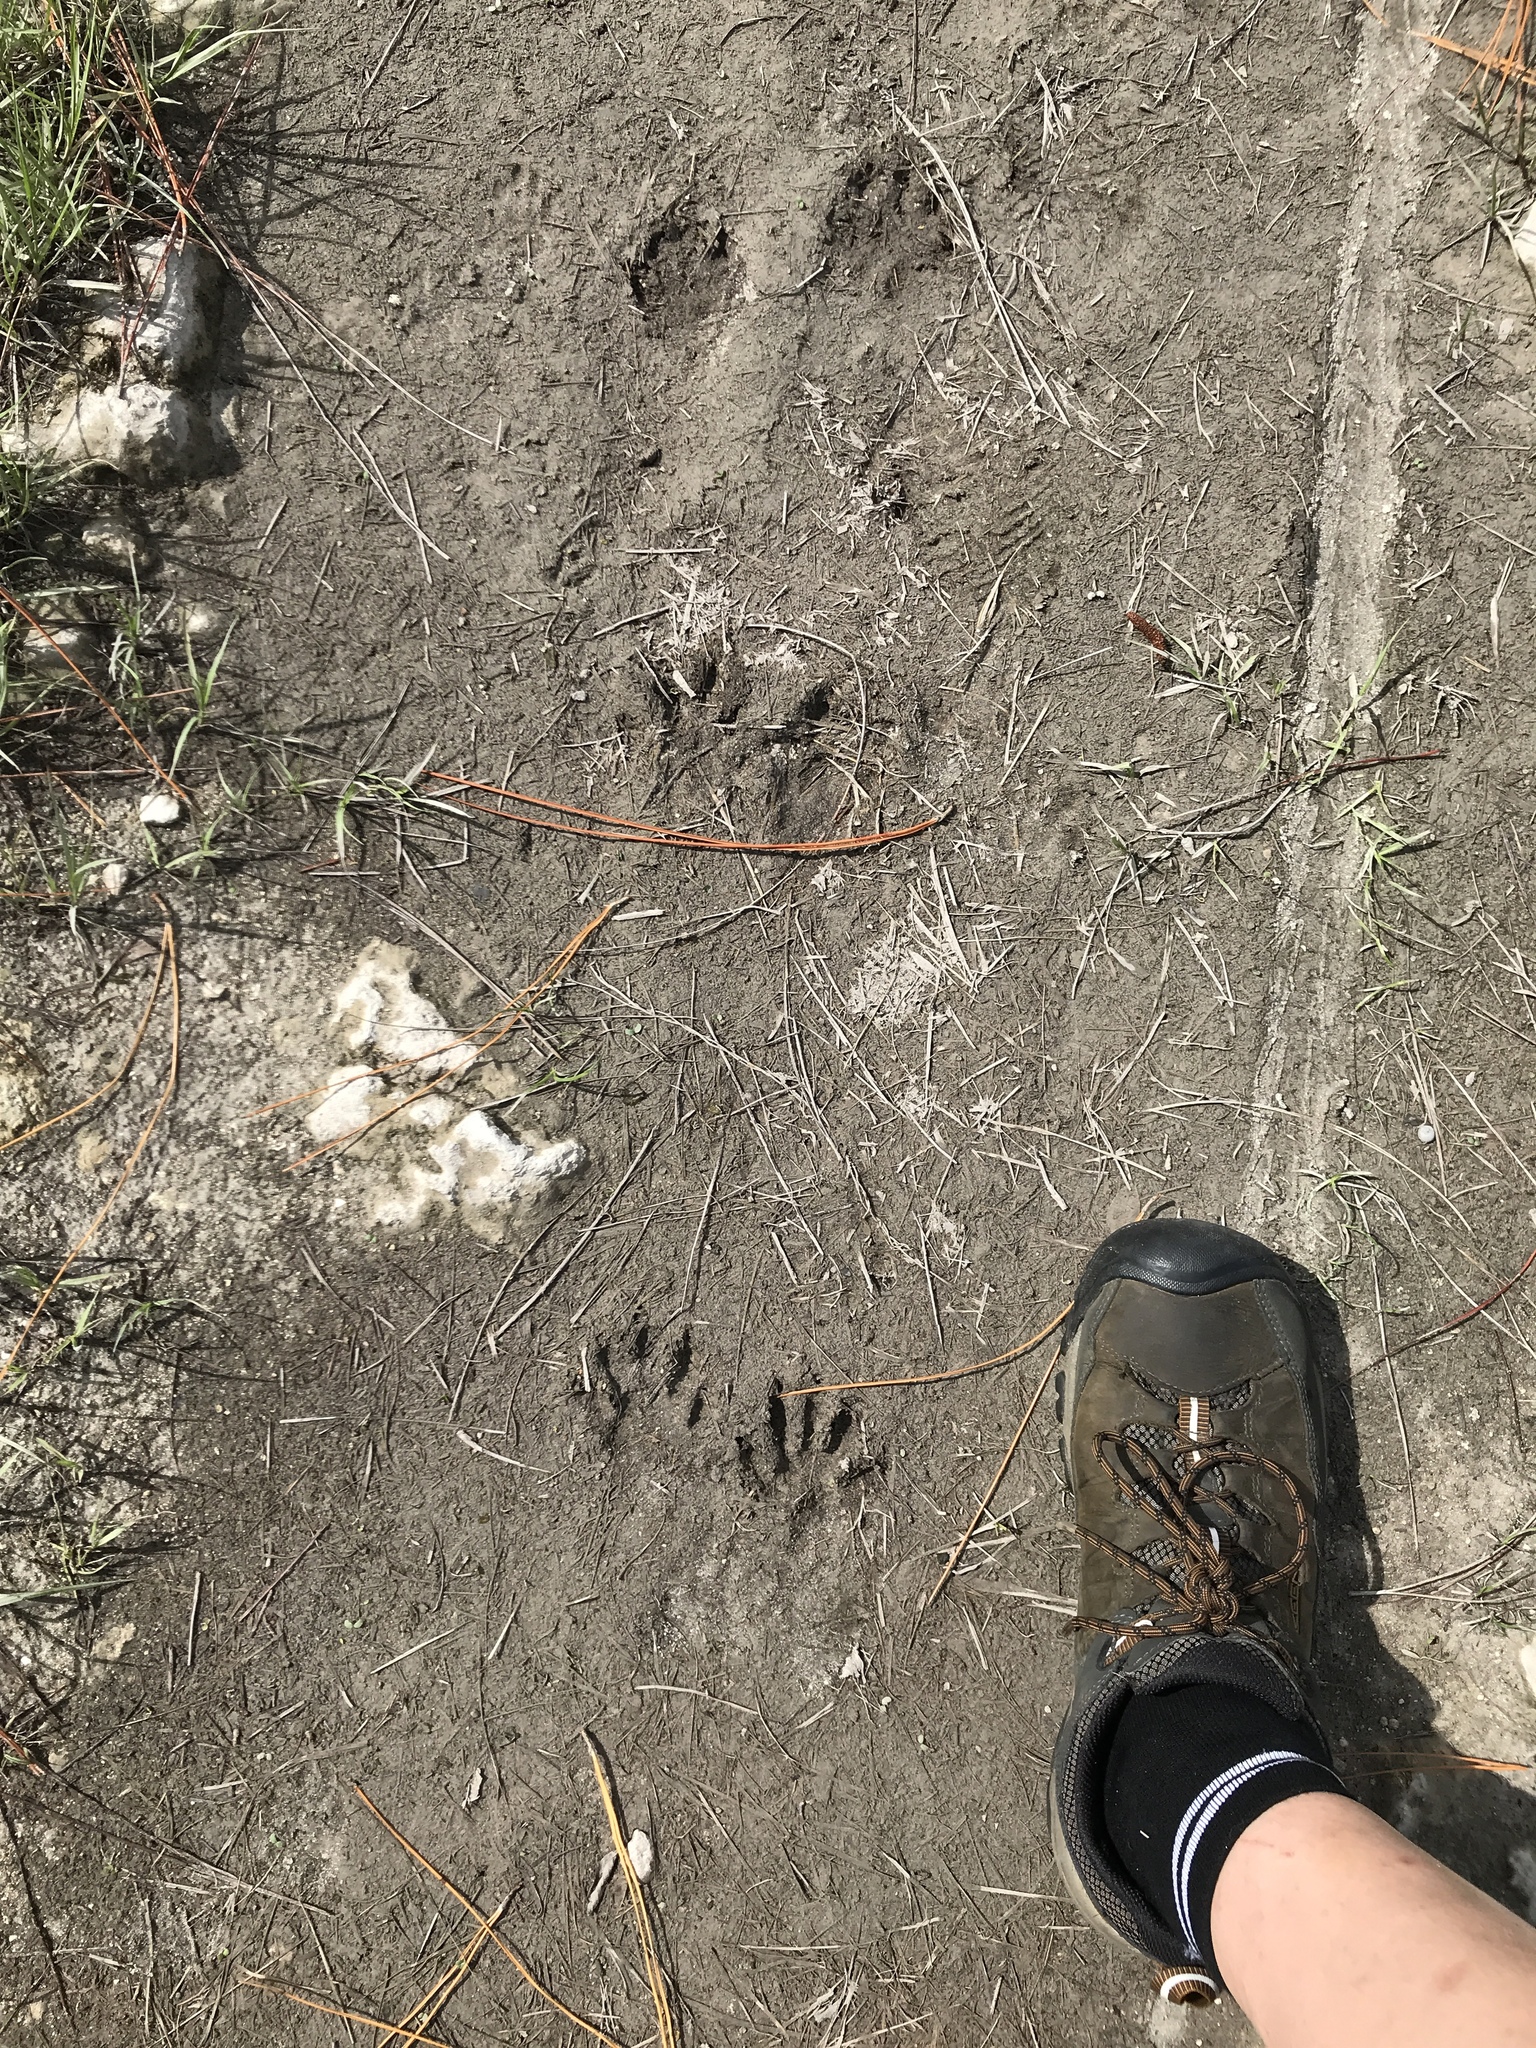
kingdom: Animalia
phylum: Chordata
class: Mammalia
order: Carnivora
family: Procyonidae
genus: Procyon
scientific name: Procyon lotor
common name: Raccoon
